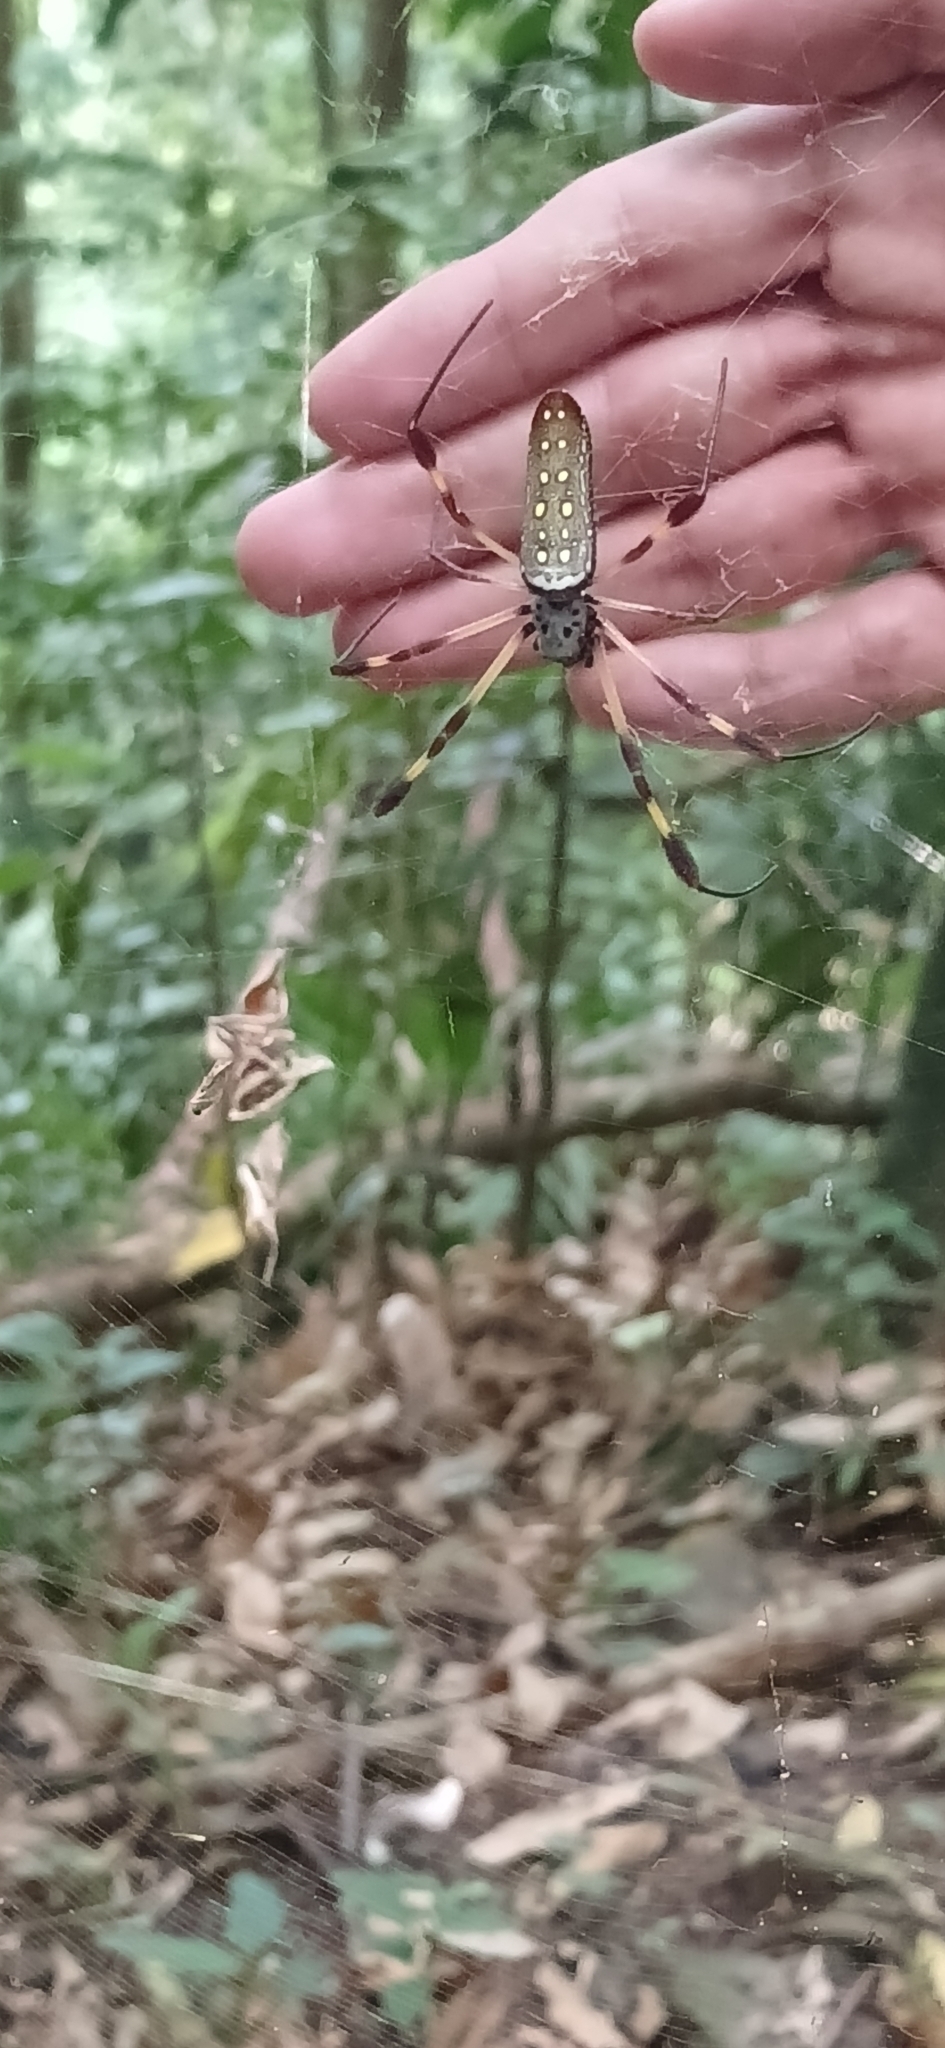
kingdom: Animalia
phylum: Arthropoda
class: Arachnida
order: Araneae
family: Araneidae
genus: Trichonephila
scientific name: Trichonephila clavipes
